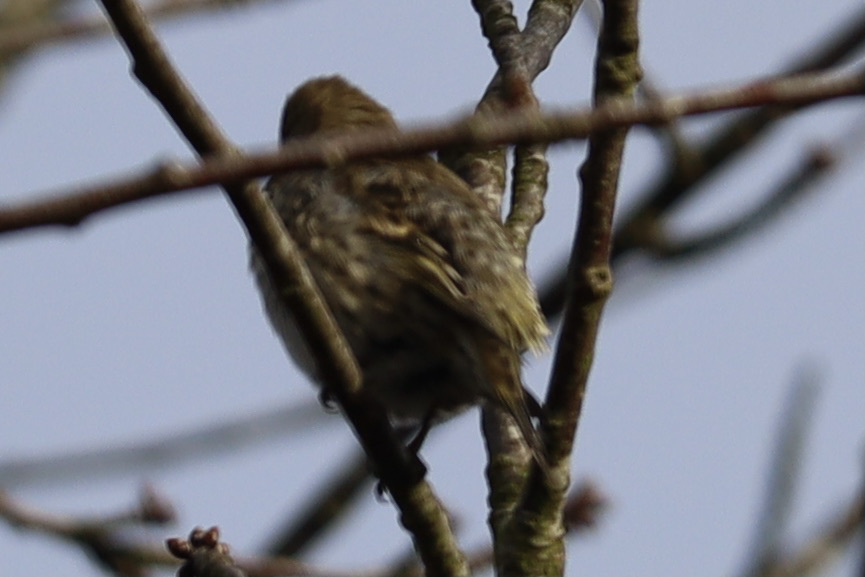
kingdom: Animalia
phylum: Chordata
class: Aves
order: Passeriformes
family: Fringillidae
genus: Spinus
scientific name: Spinus pinus
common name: Pine siskin
